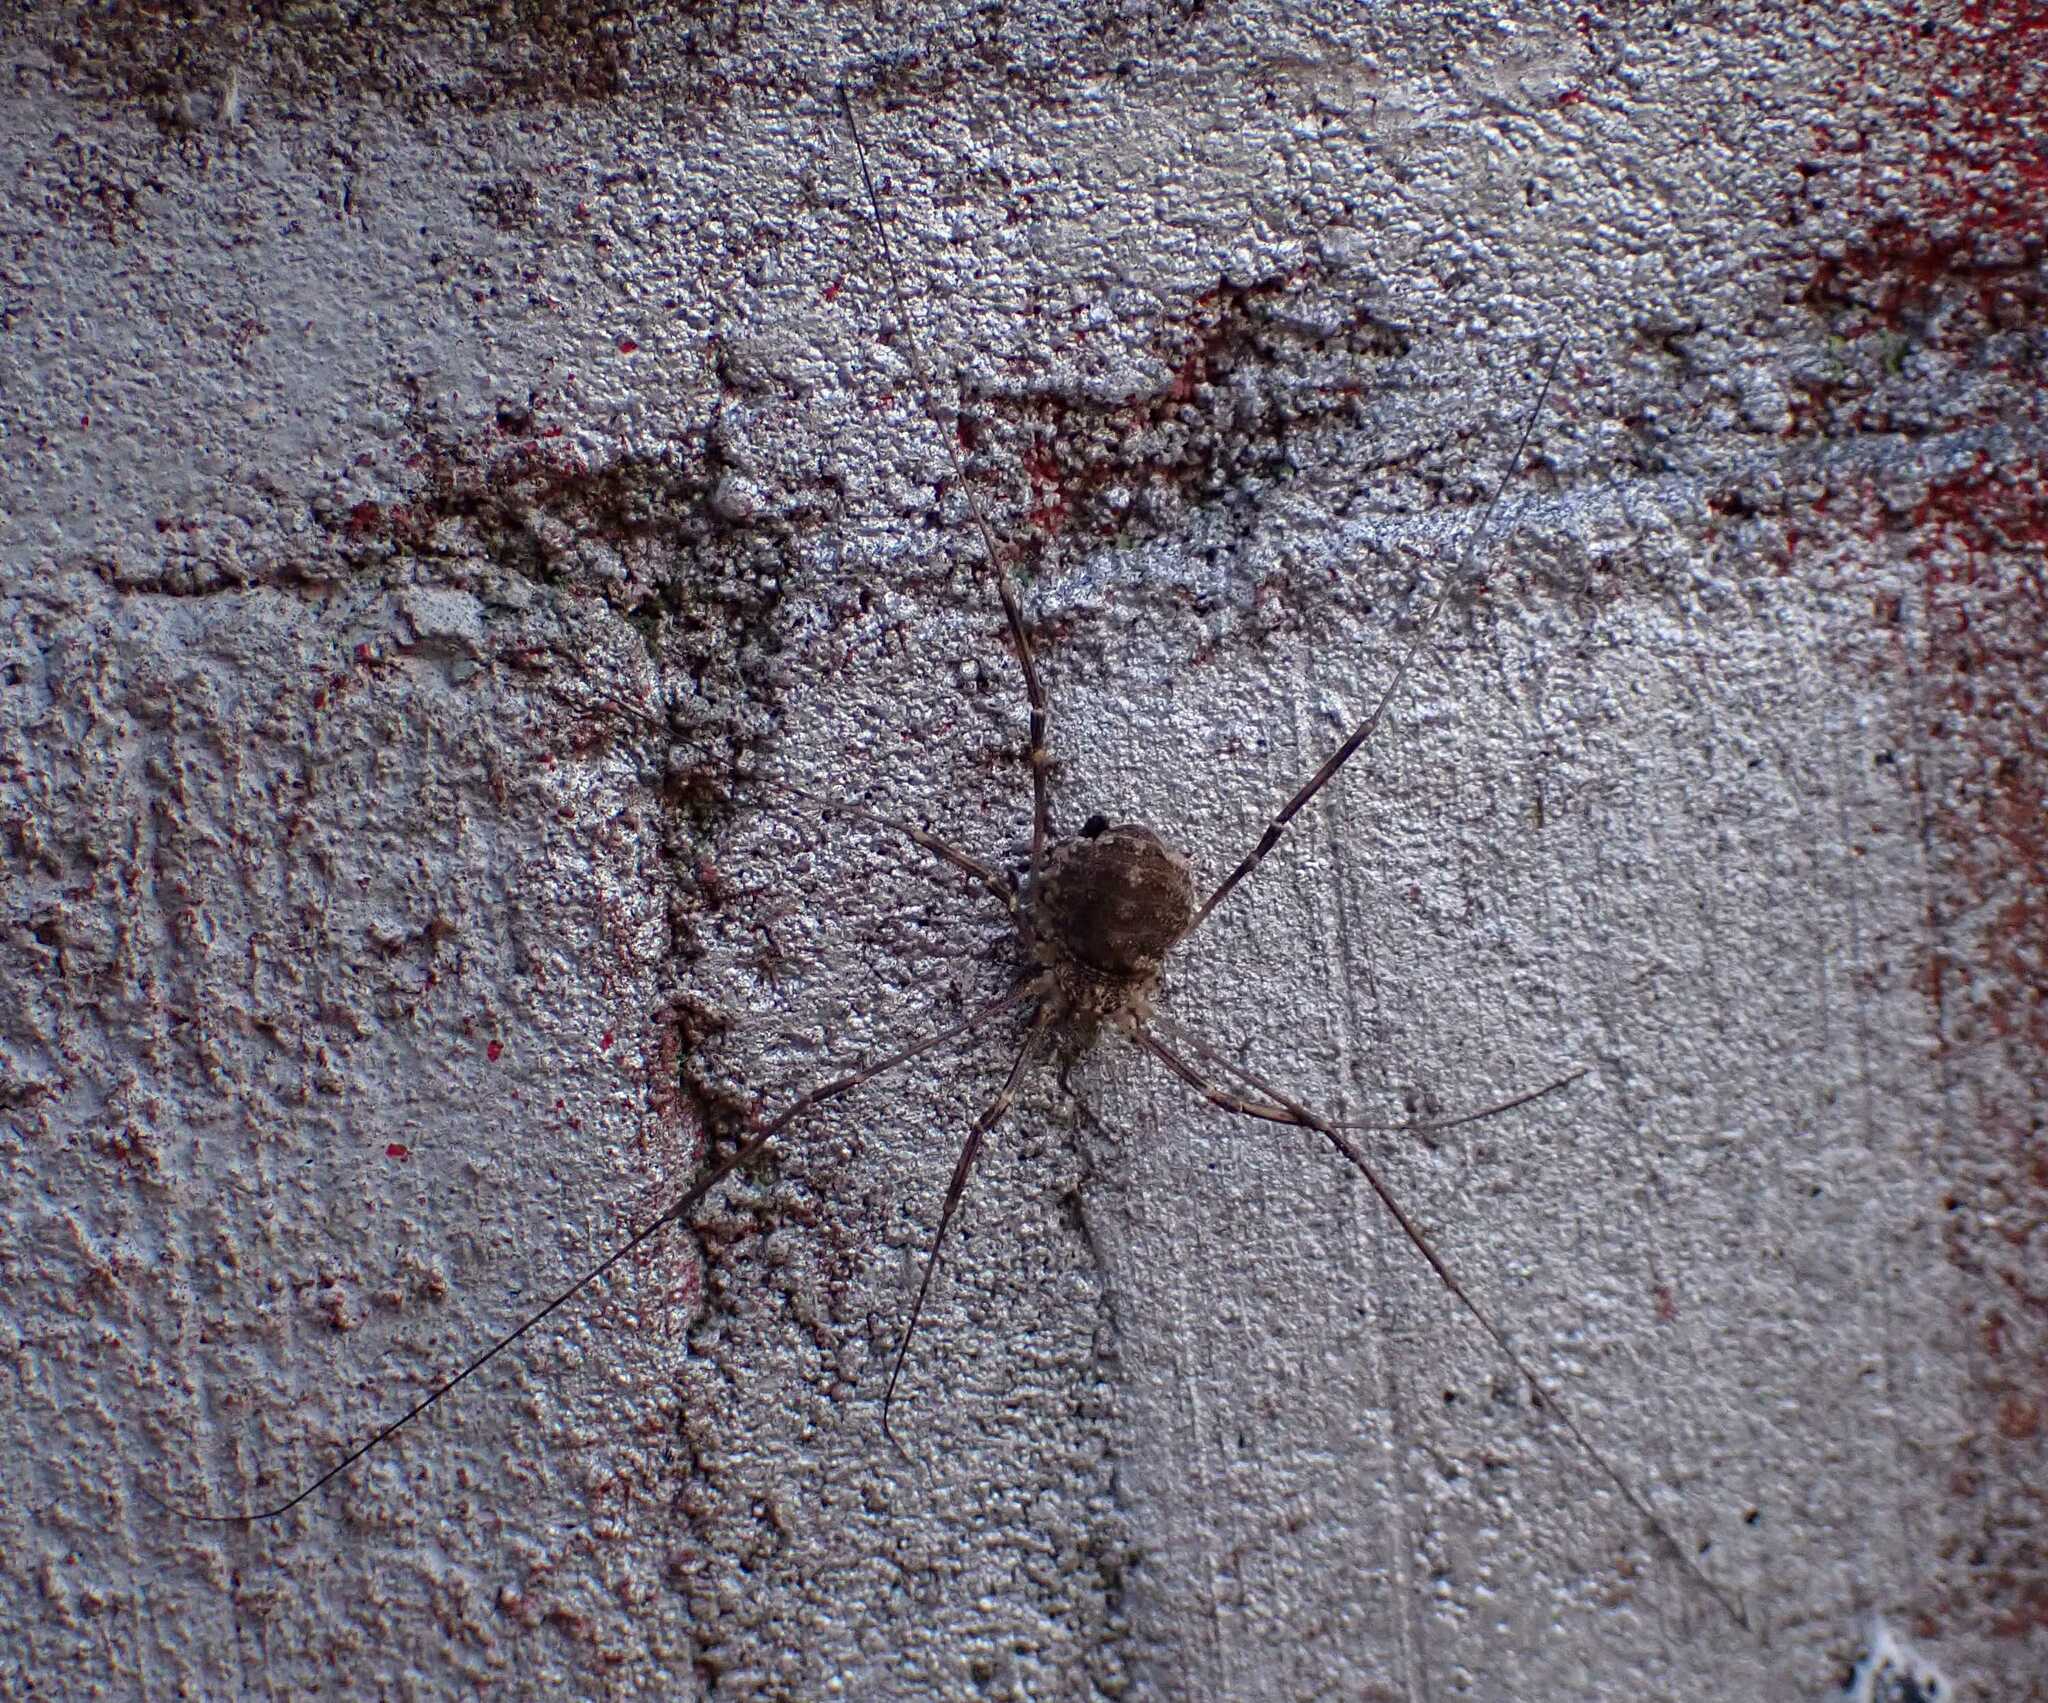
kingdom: Animalia
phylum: Arthropoda
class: Arachnida
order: Opiliones
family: Phalangiidae
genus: Opilio
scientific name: Opilio saxatilis
